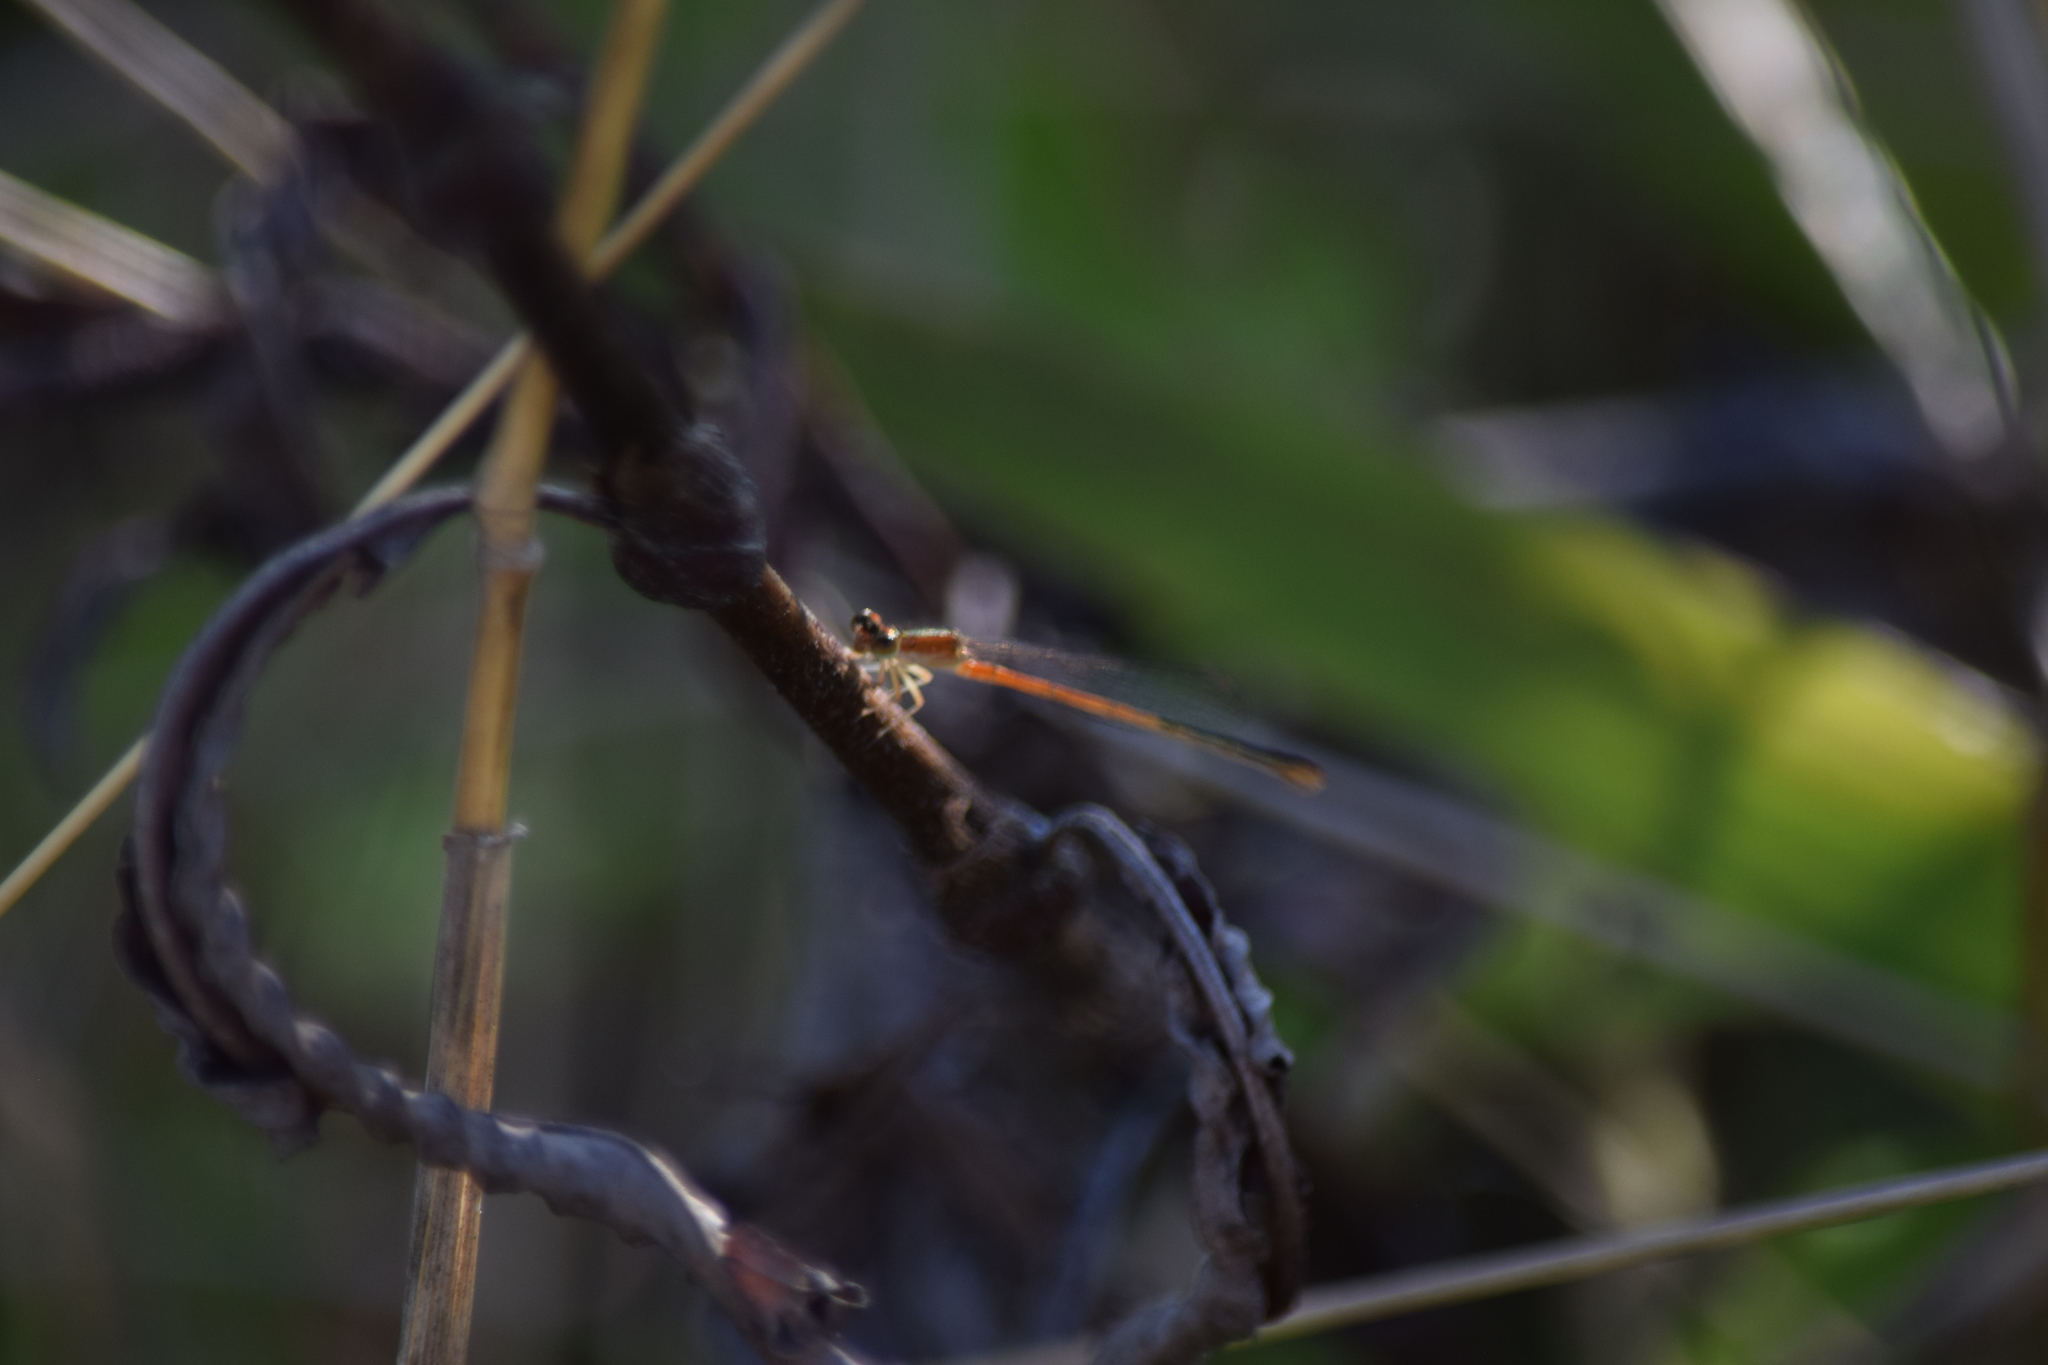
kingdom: Animalia
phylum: Arthropoda
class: Insecta
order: Odonata
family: Coenagrionidae
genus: Ischnura
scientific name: Ischnura hastata
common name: Citrine forktail
